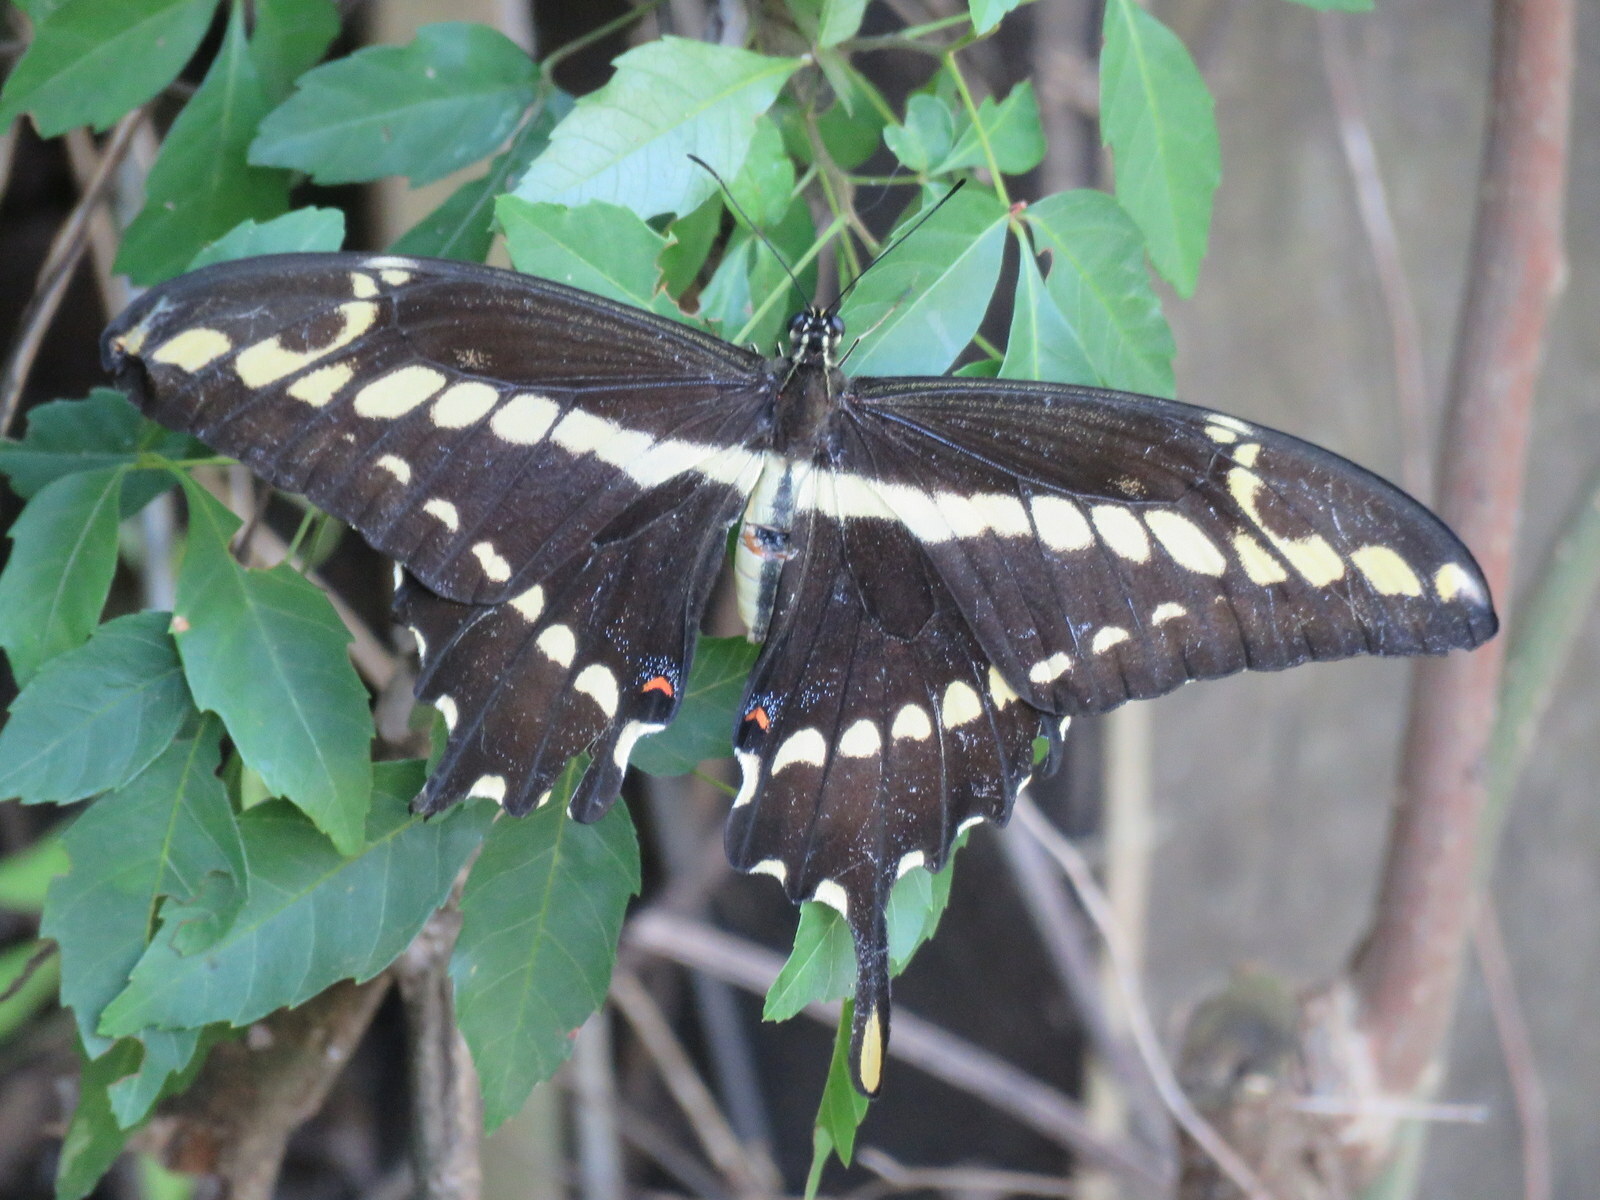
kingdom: Animalia
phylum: Arthropoda
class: Insecta
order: Lepidoptera
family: Papilionidae
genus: Papilio
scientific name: Papilio thoas
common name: King swallowtail
